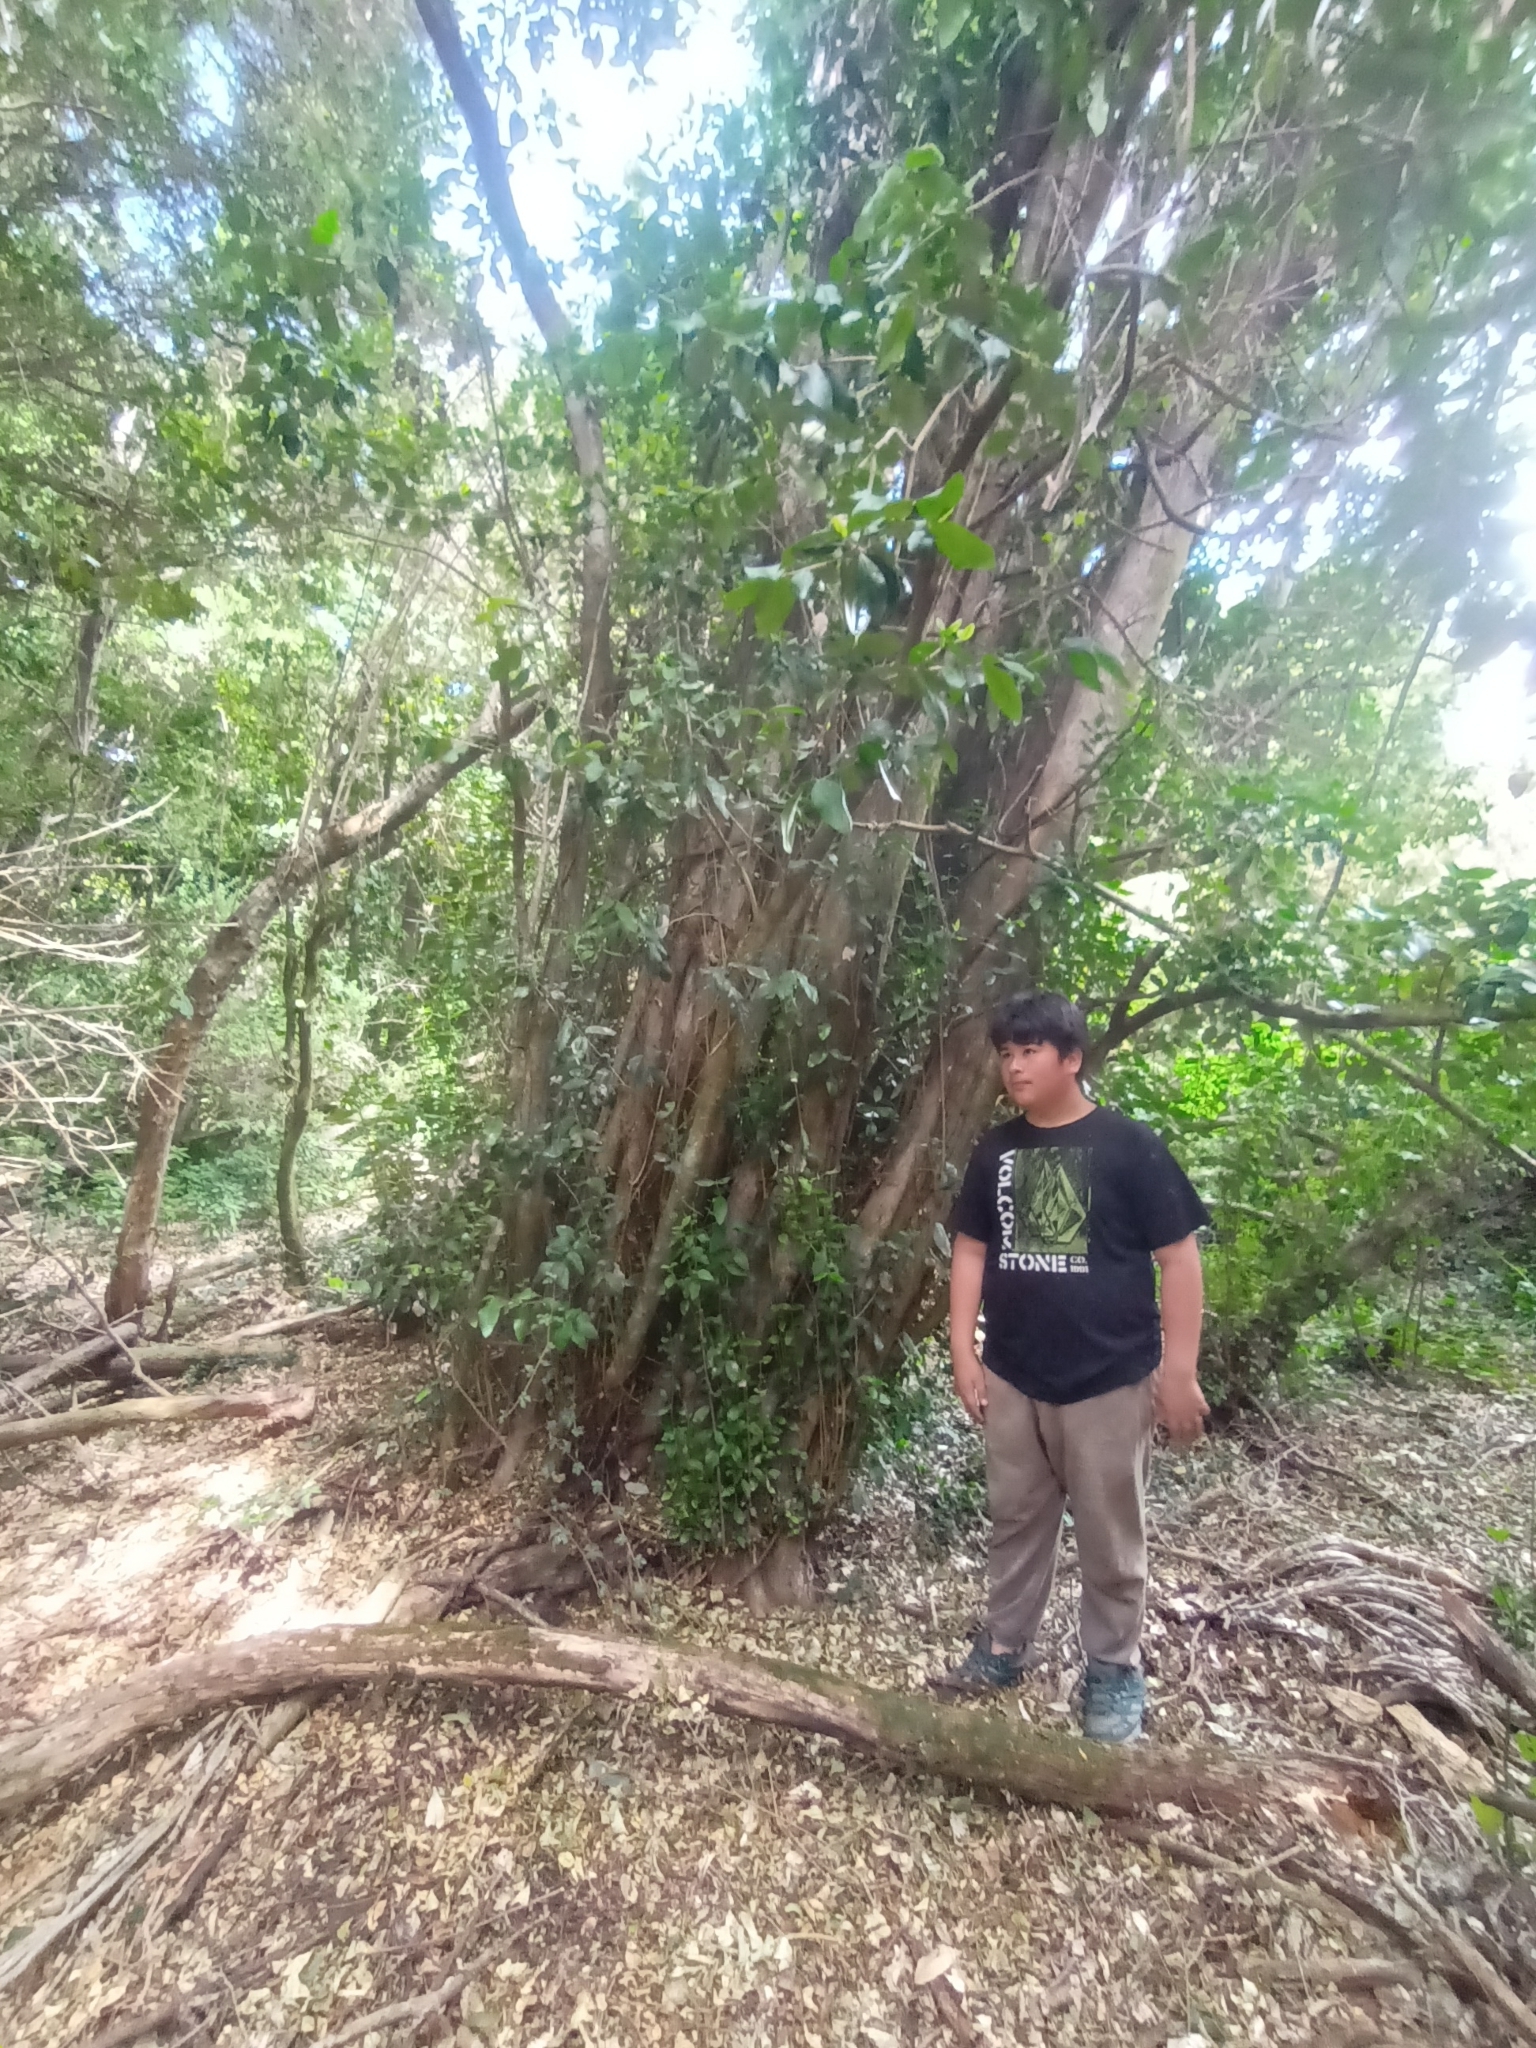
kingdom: Plantae
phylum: Tracheophyta
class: Magnoliopsida
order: Myrtales
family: Myrtaceae
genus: Myrceugenia
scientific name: Myrceugenia exsucca
